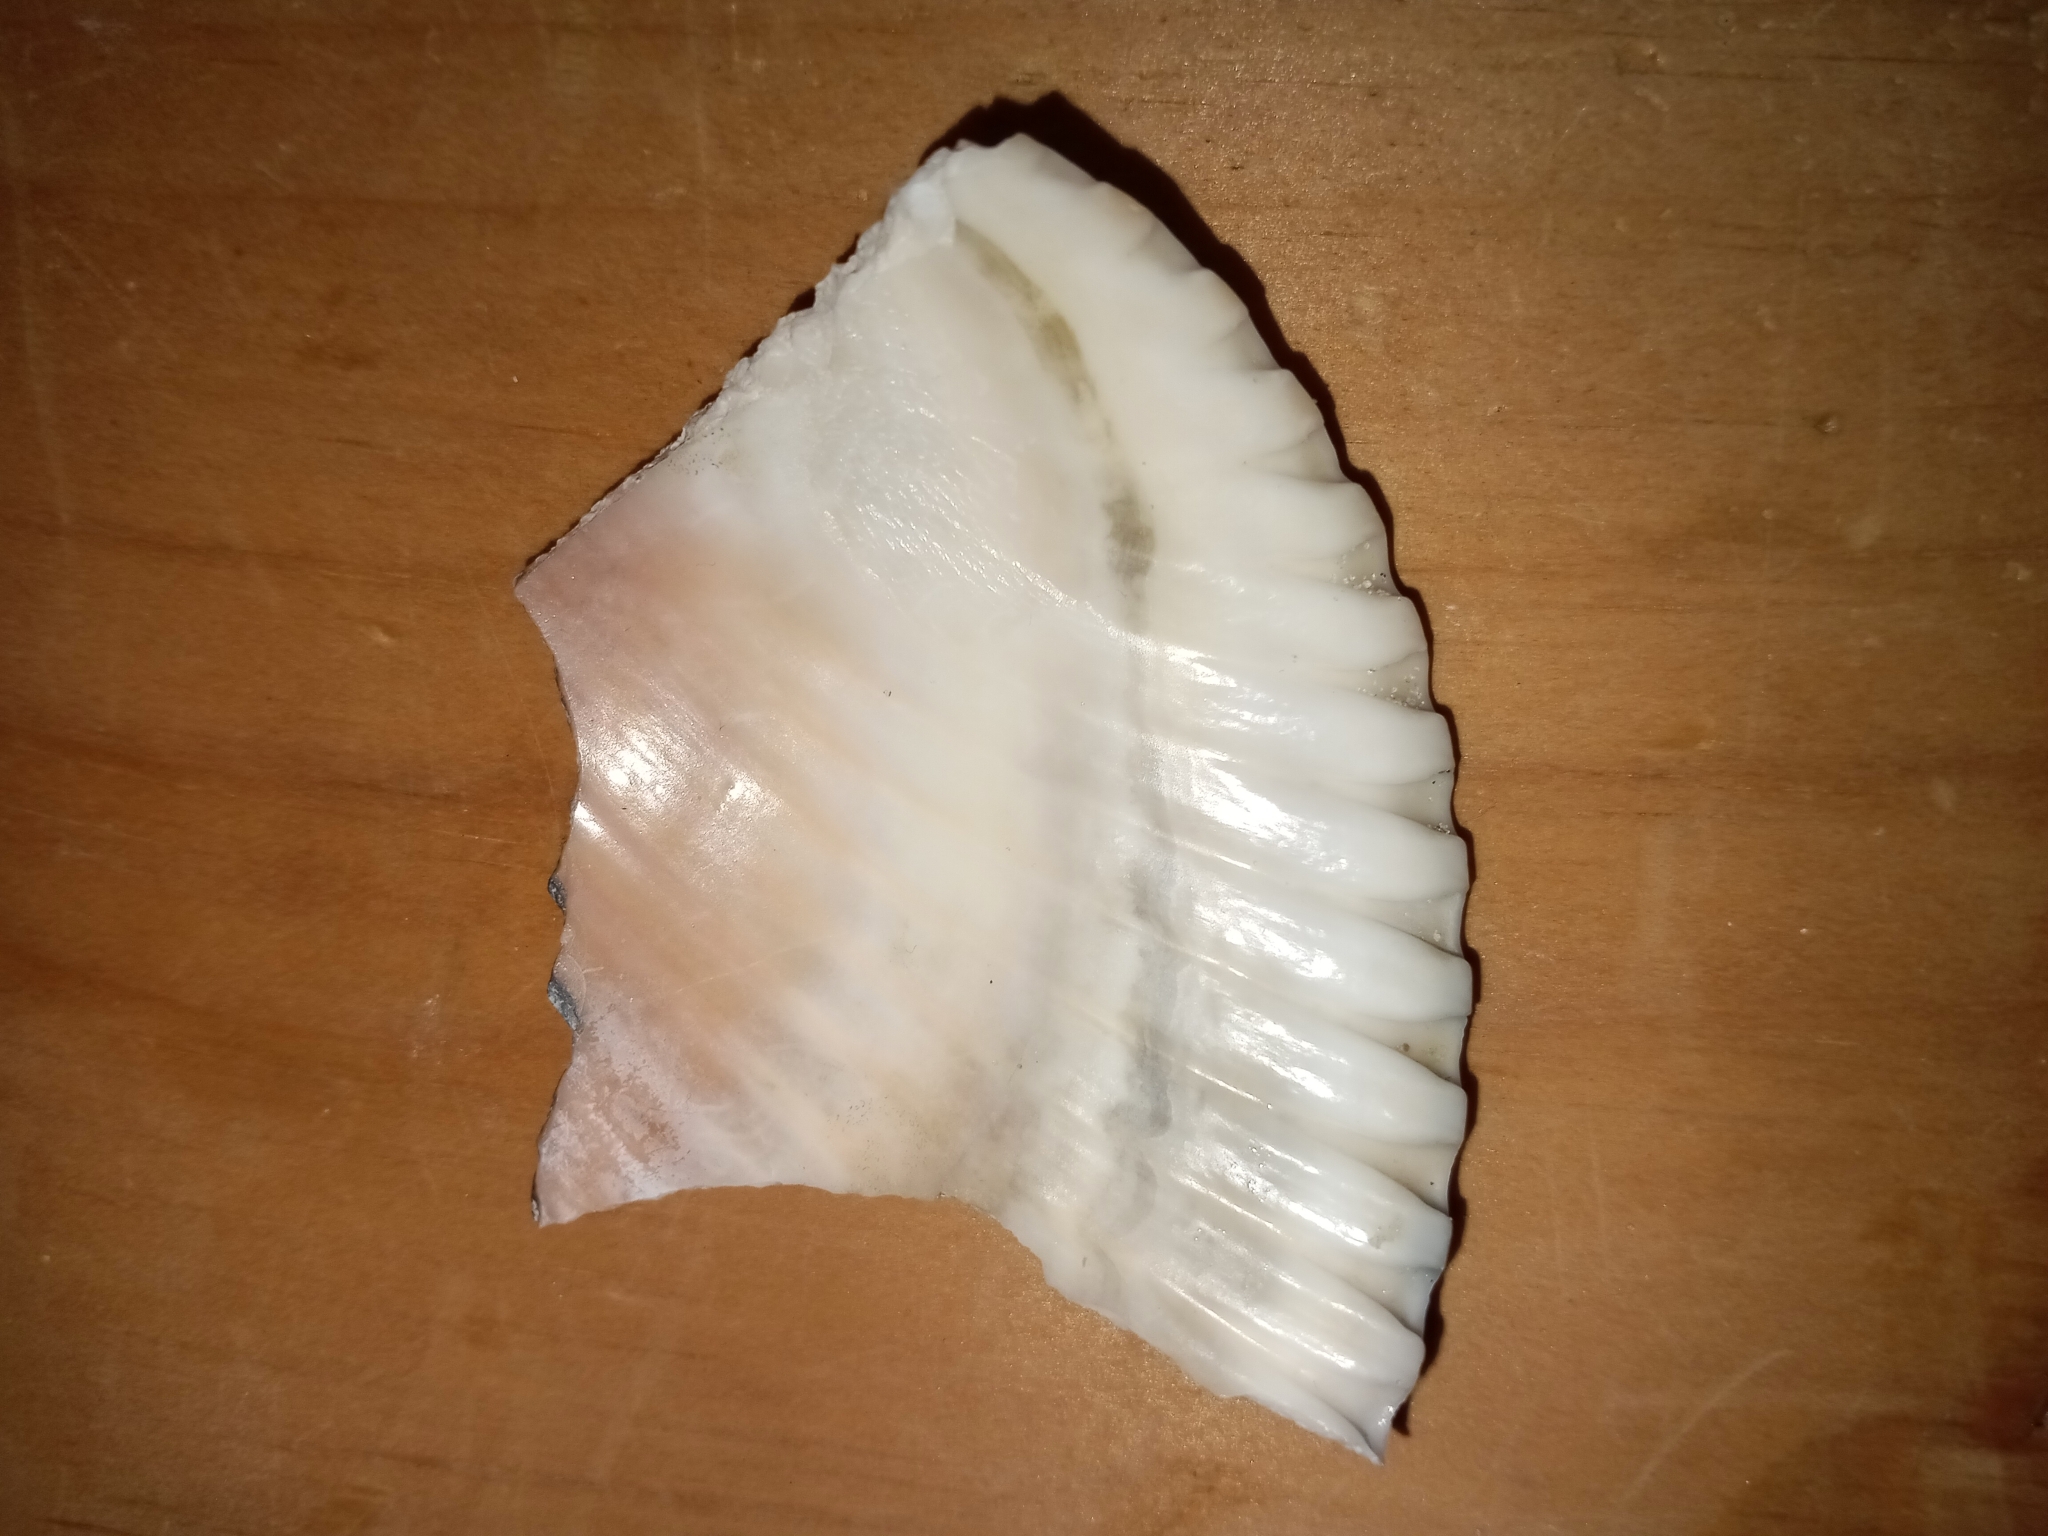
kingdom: Animalia
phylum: Mollusca
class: Bivalvia
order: Cardiida
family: Cardiidae
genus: Dinocardium
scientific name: Dinocardium robustum
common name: Atlantic giant cockle
